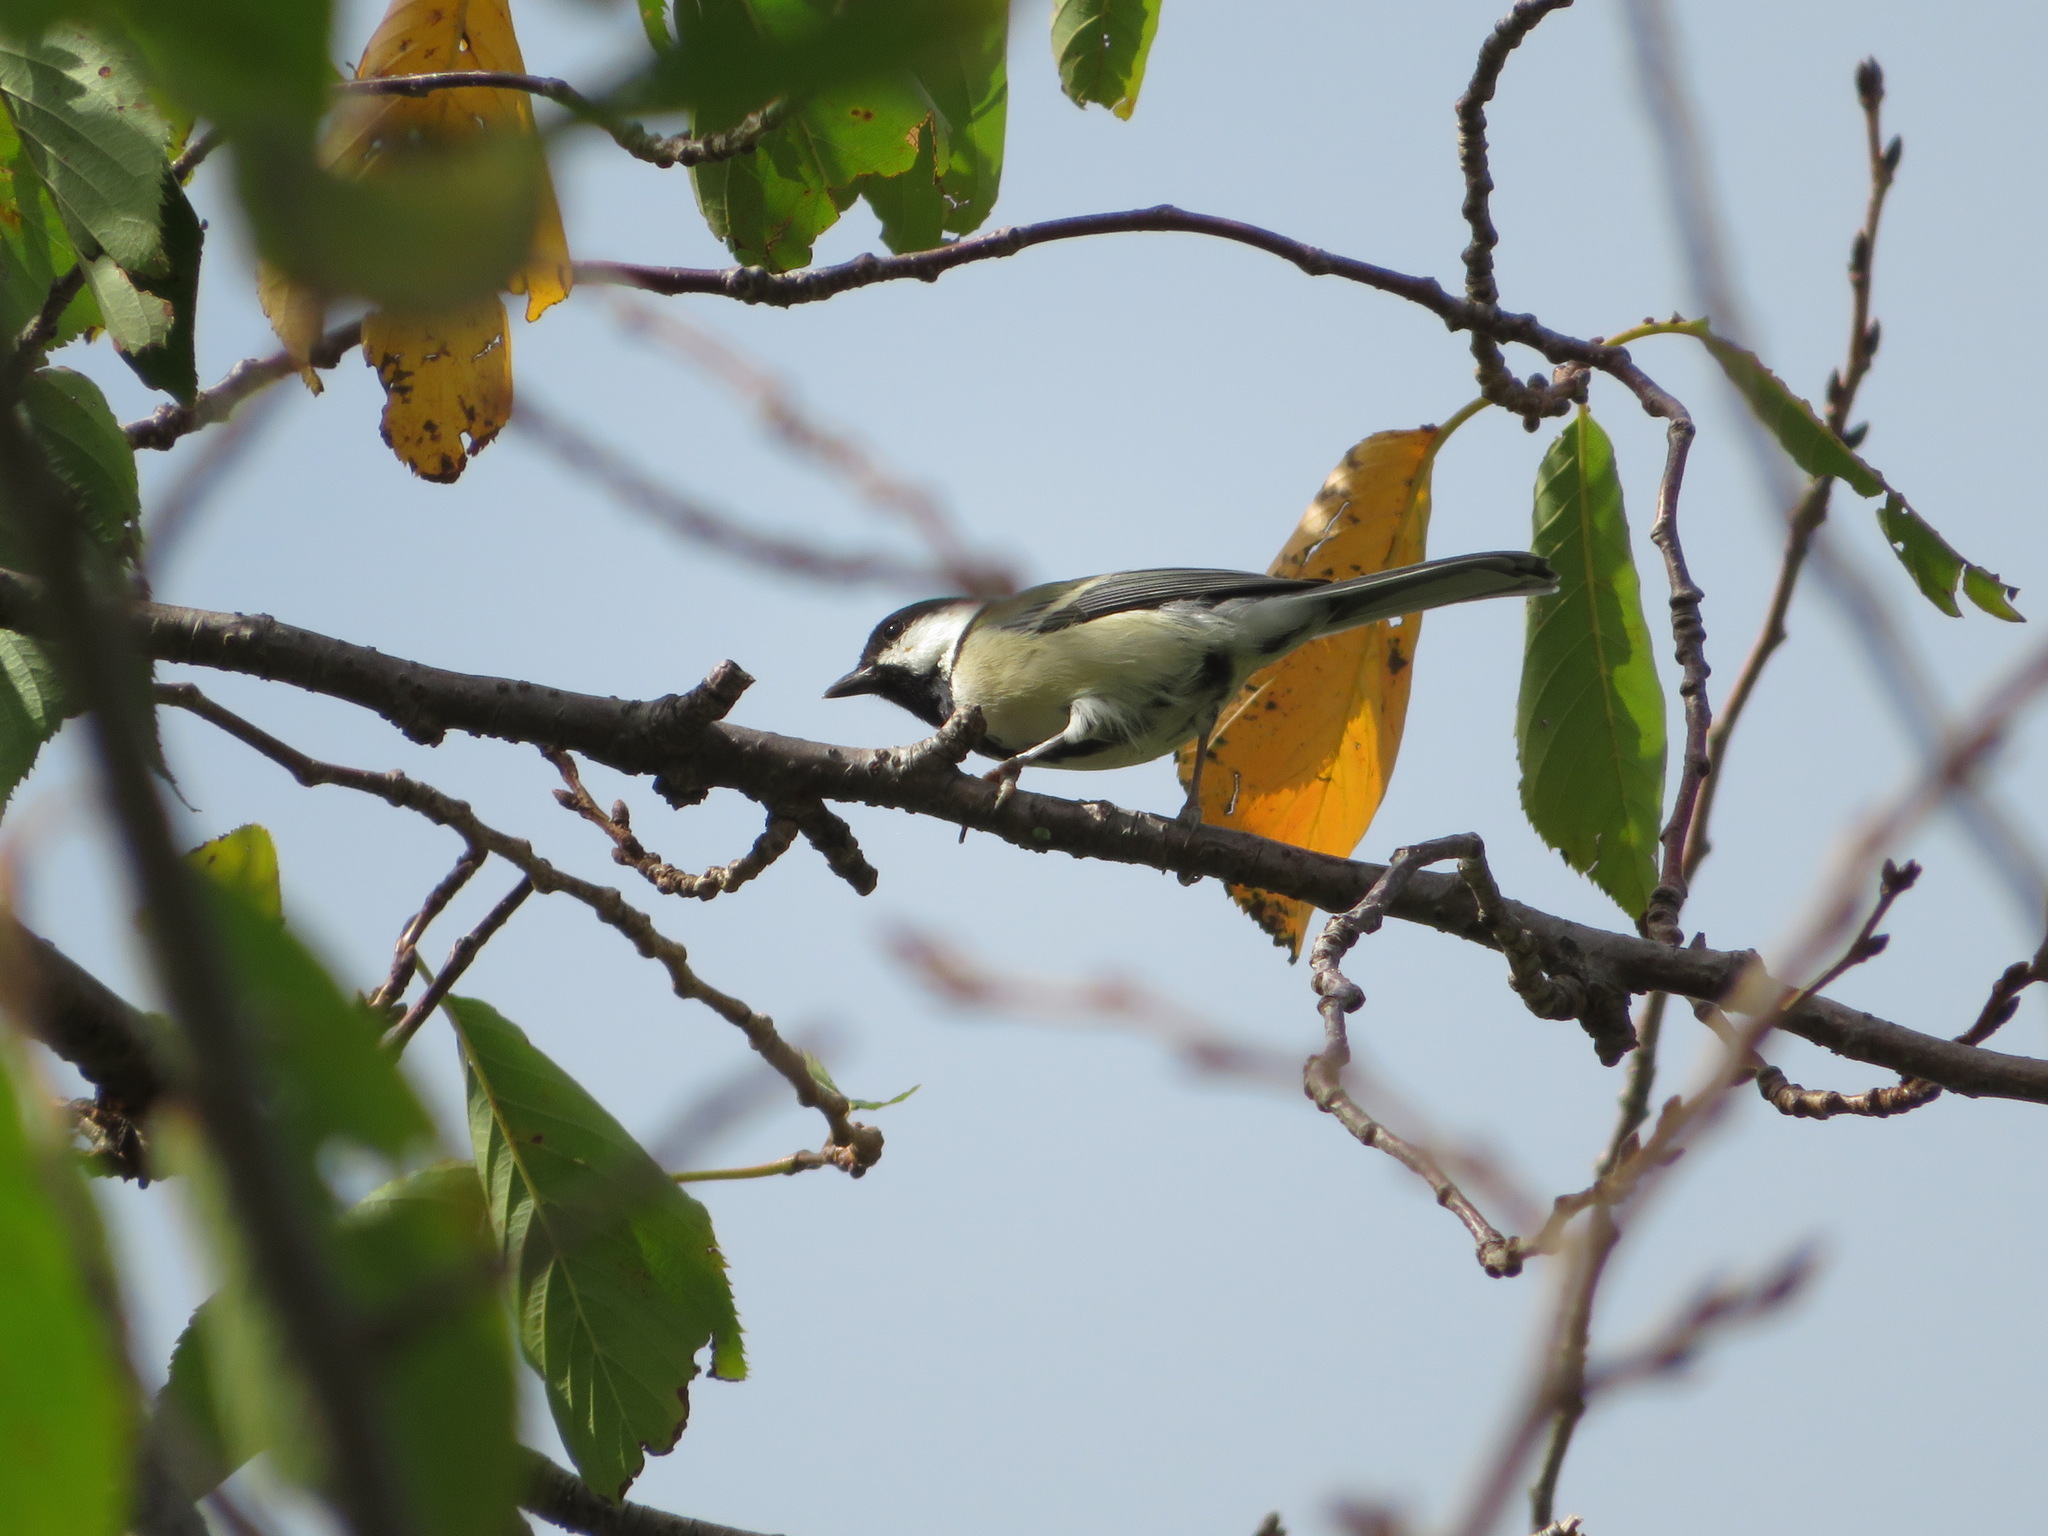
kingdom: Animalia
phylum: Chordata
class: Aves
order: Passeriformes
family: Paridae
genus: Parus
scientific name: Parus minor
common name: Japanese tit
